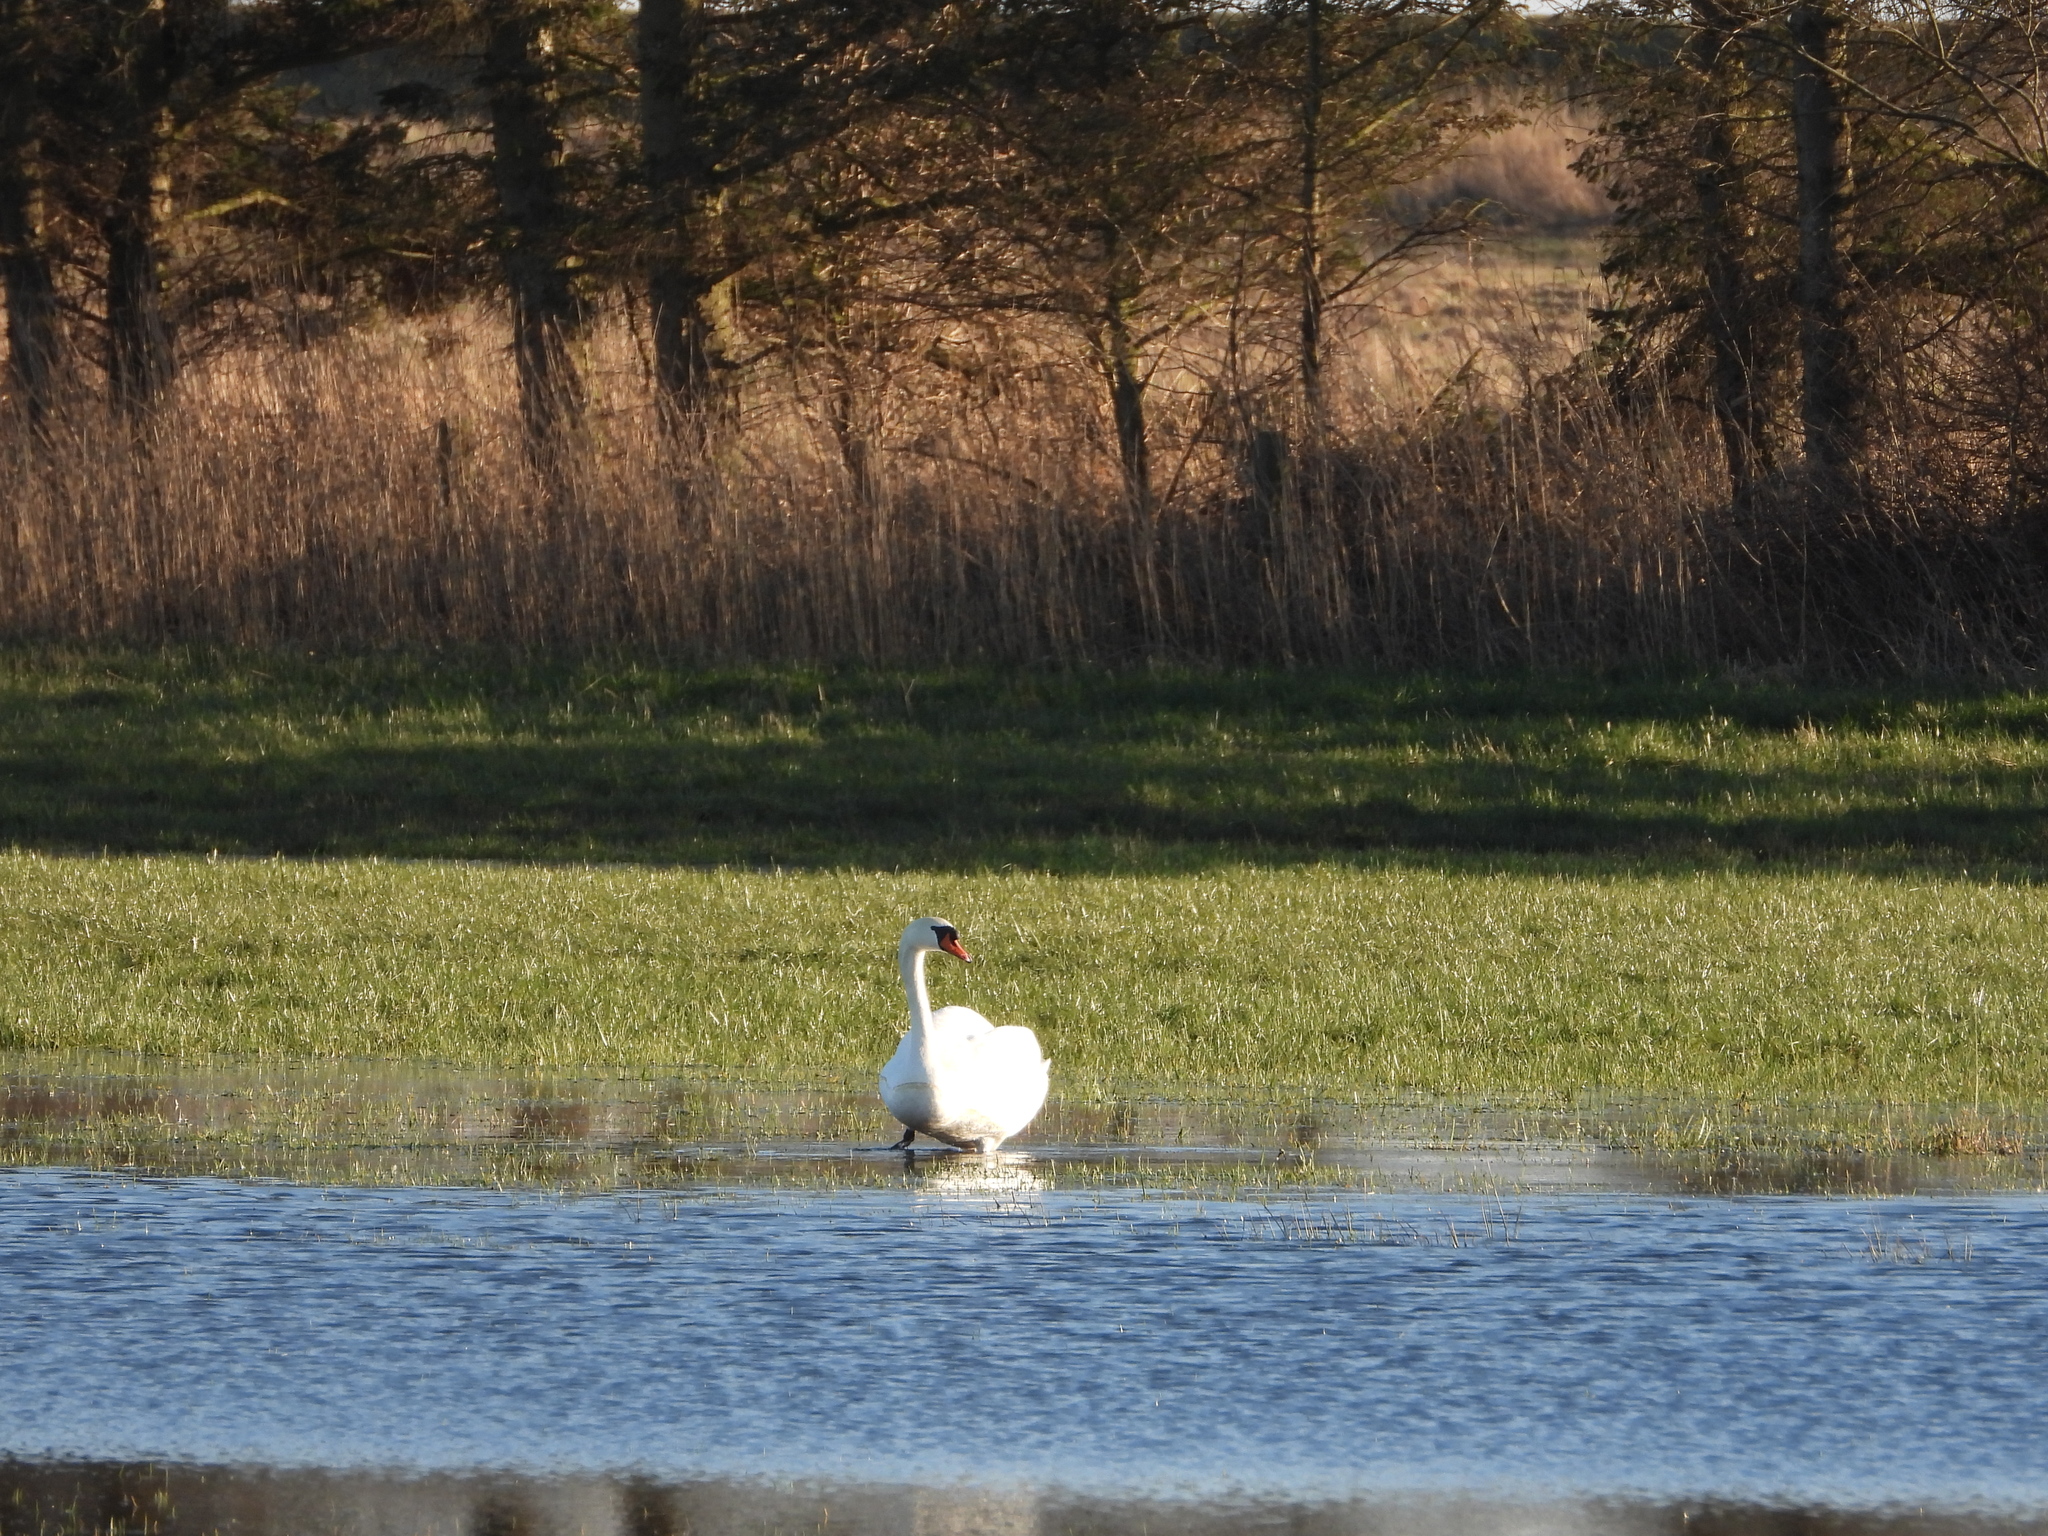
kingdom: Animalia
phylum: Chordata
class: Aves
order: Anseriformes
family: Anatidae
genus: Cygnus
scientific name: Cygnus olor
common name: Mute swan
